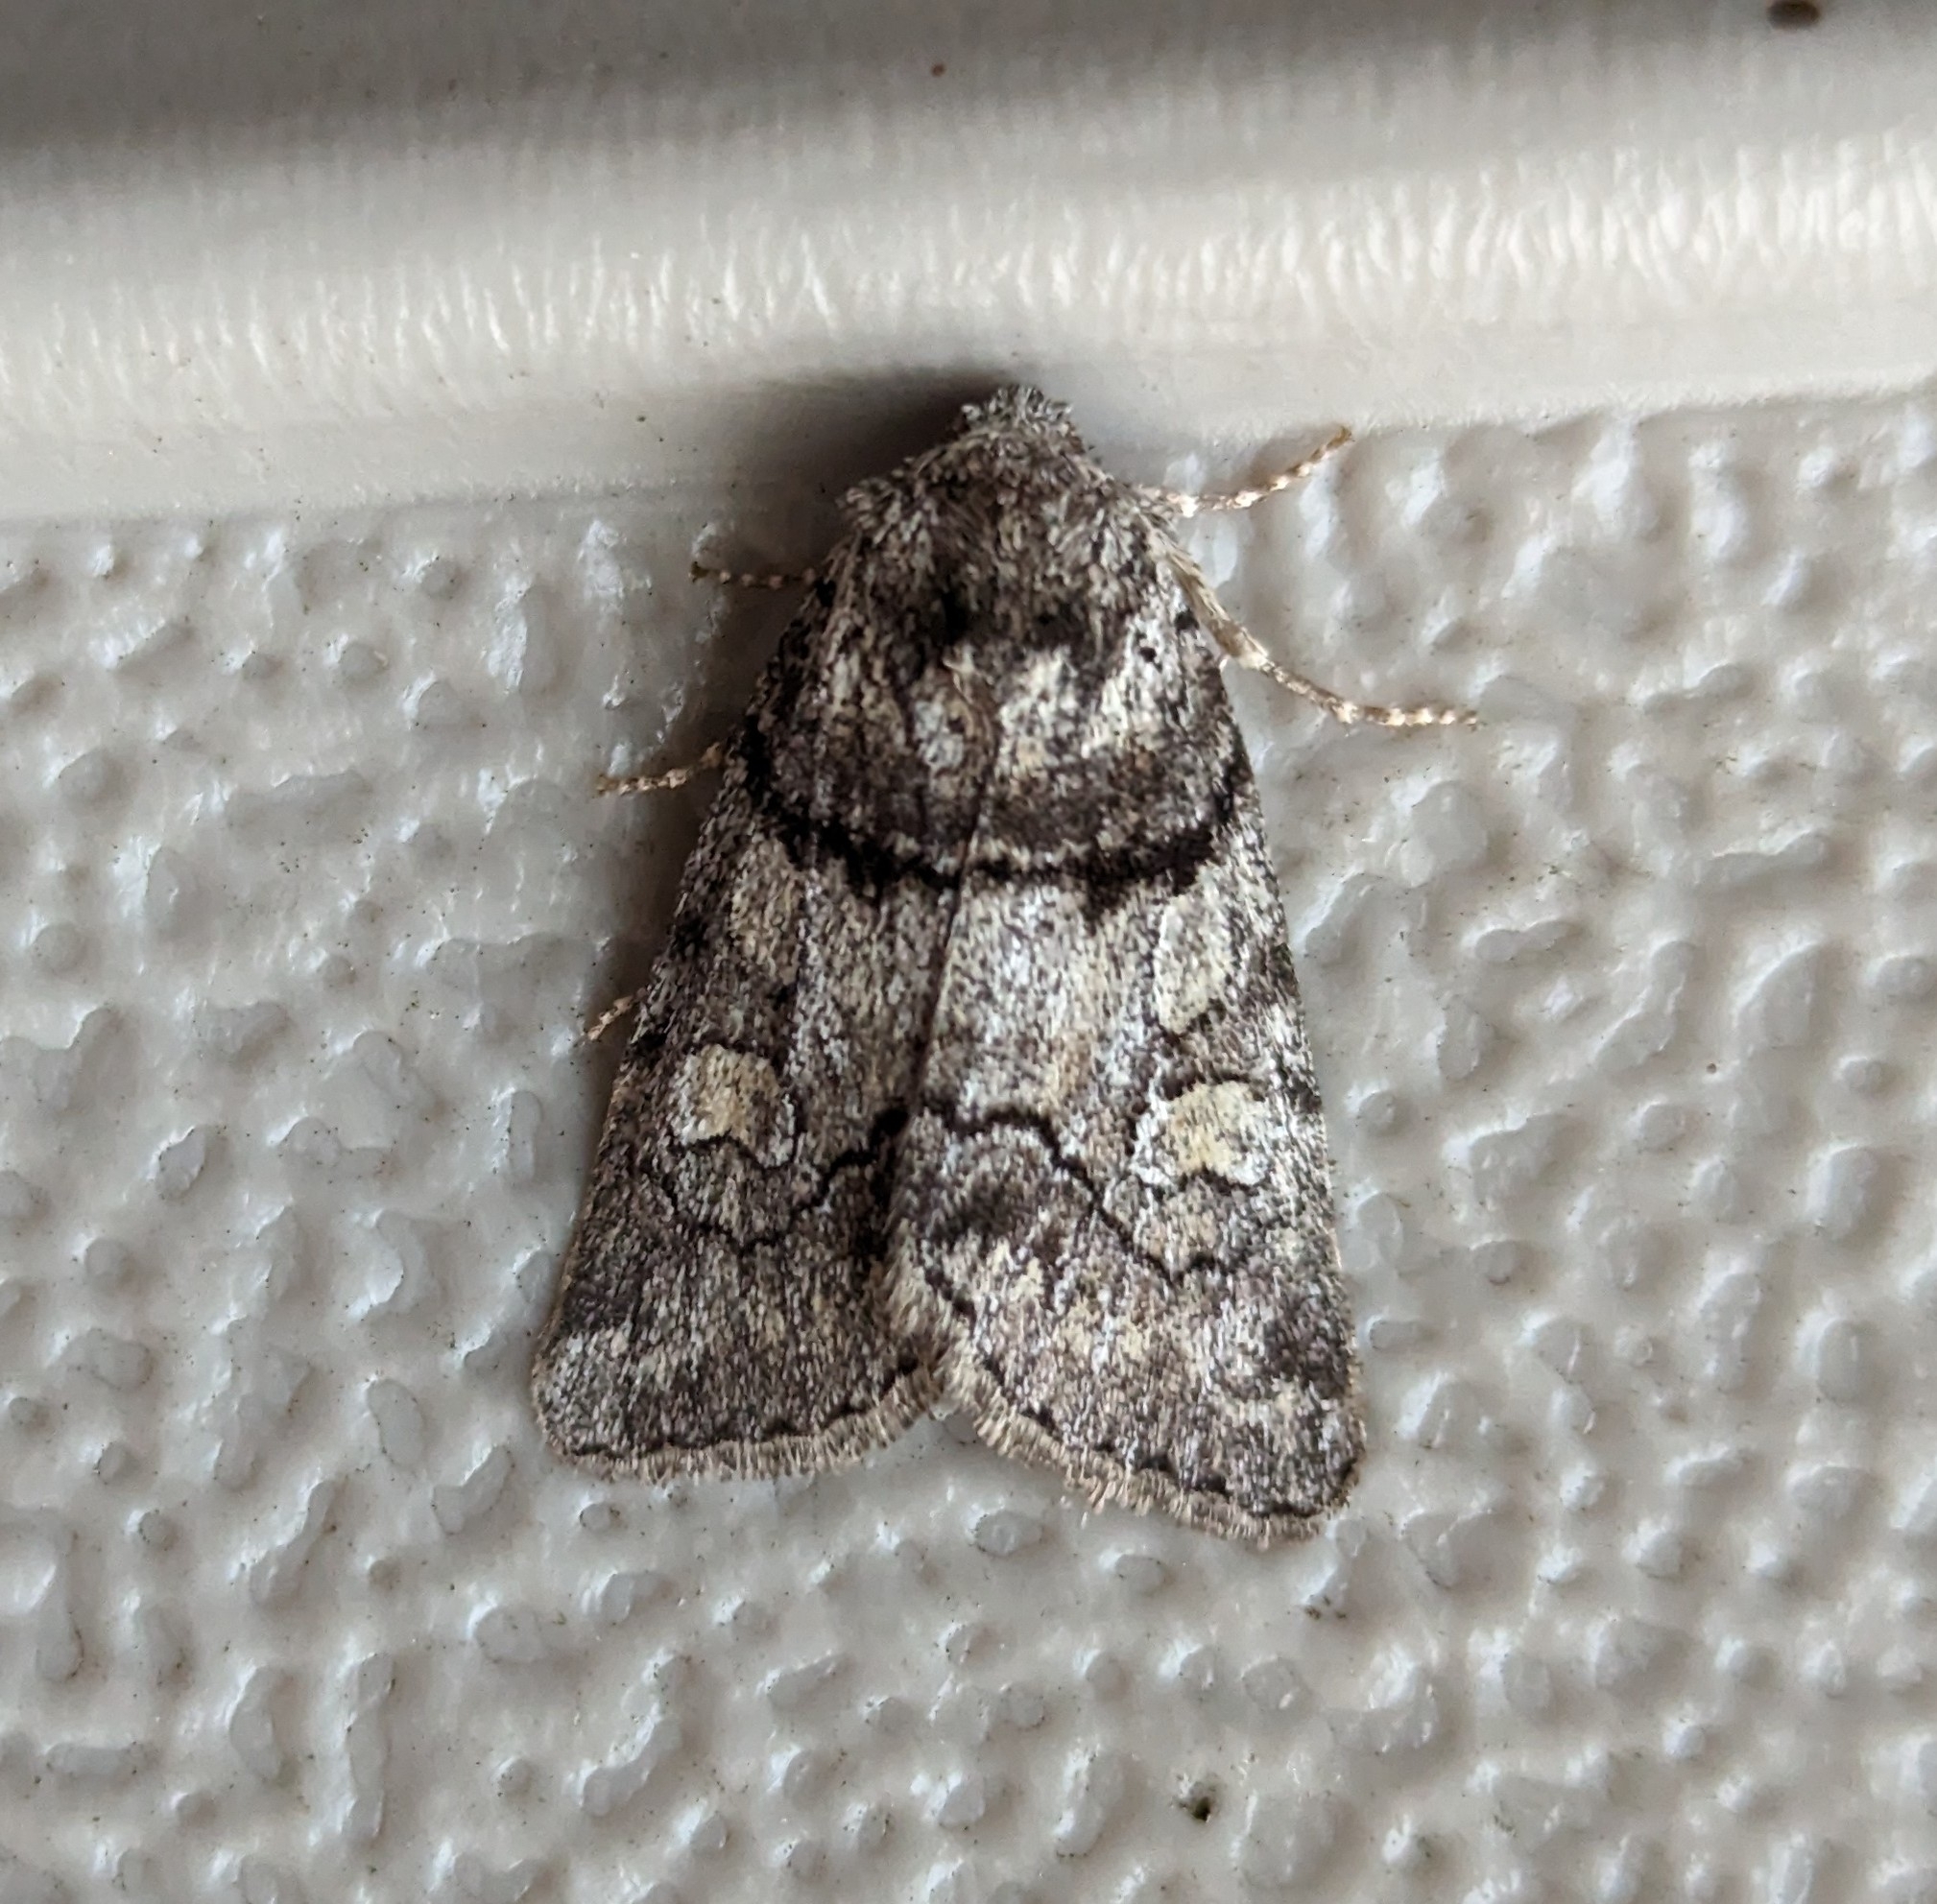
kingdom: Animalia
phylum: Arthropoda
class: Insecta
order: Lepidoptera
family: Noctuidae
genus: Cosmia
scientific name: Cosmia praeacuta
